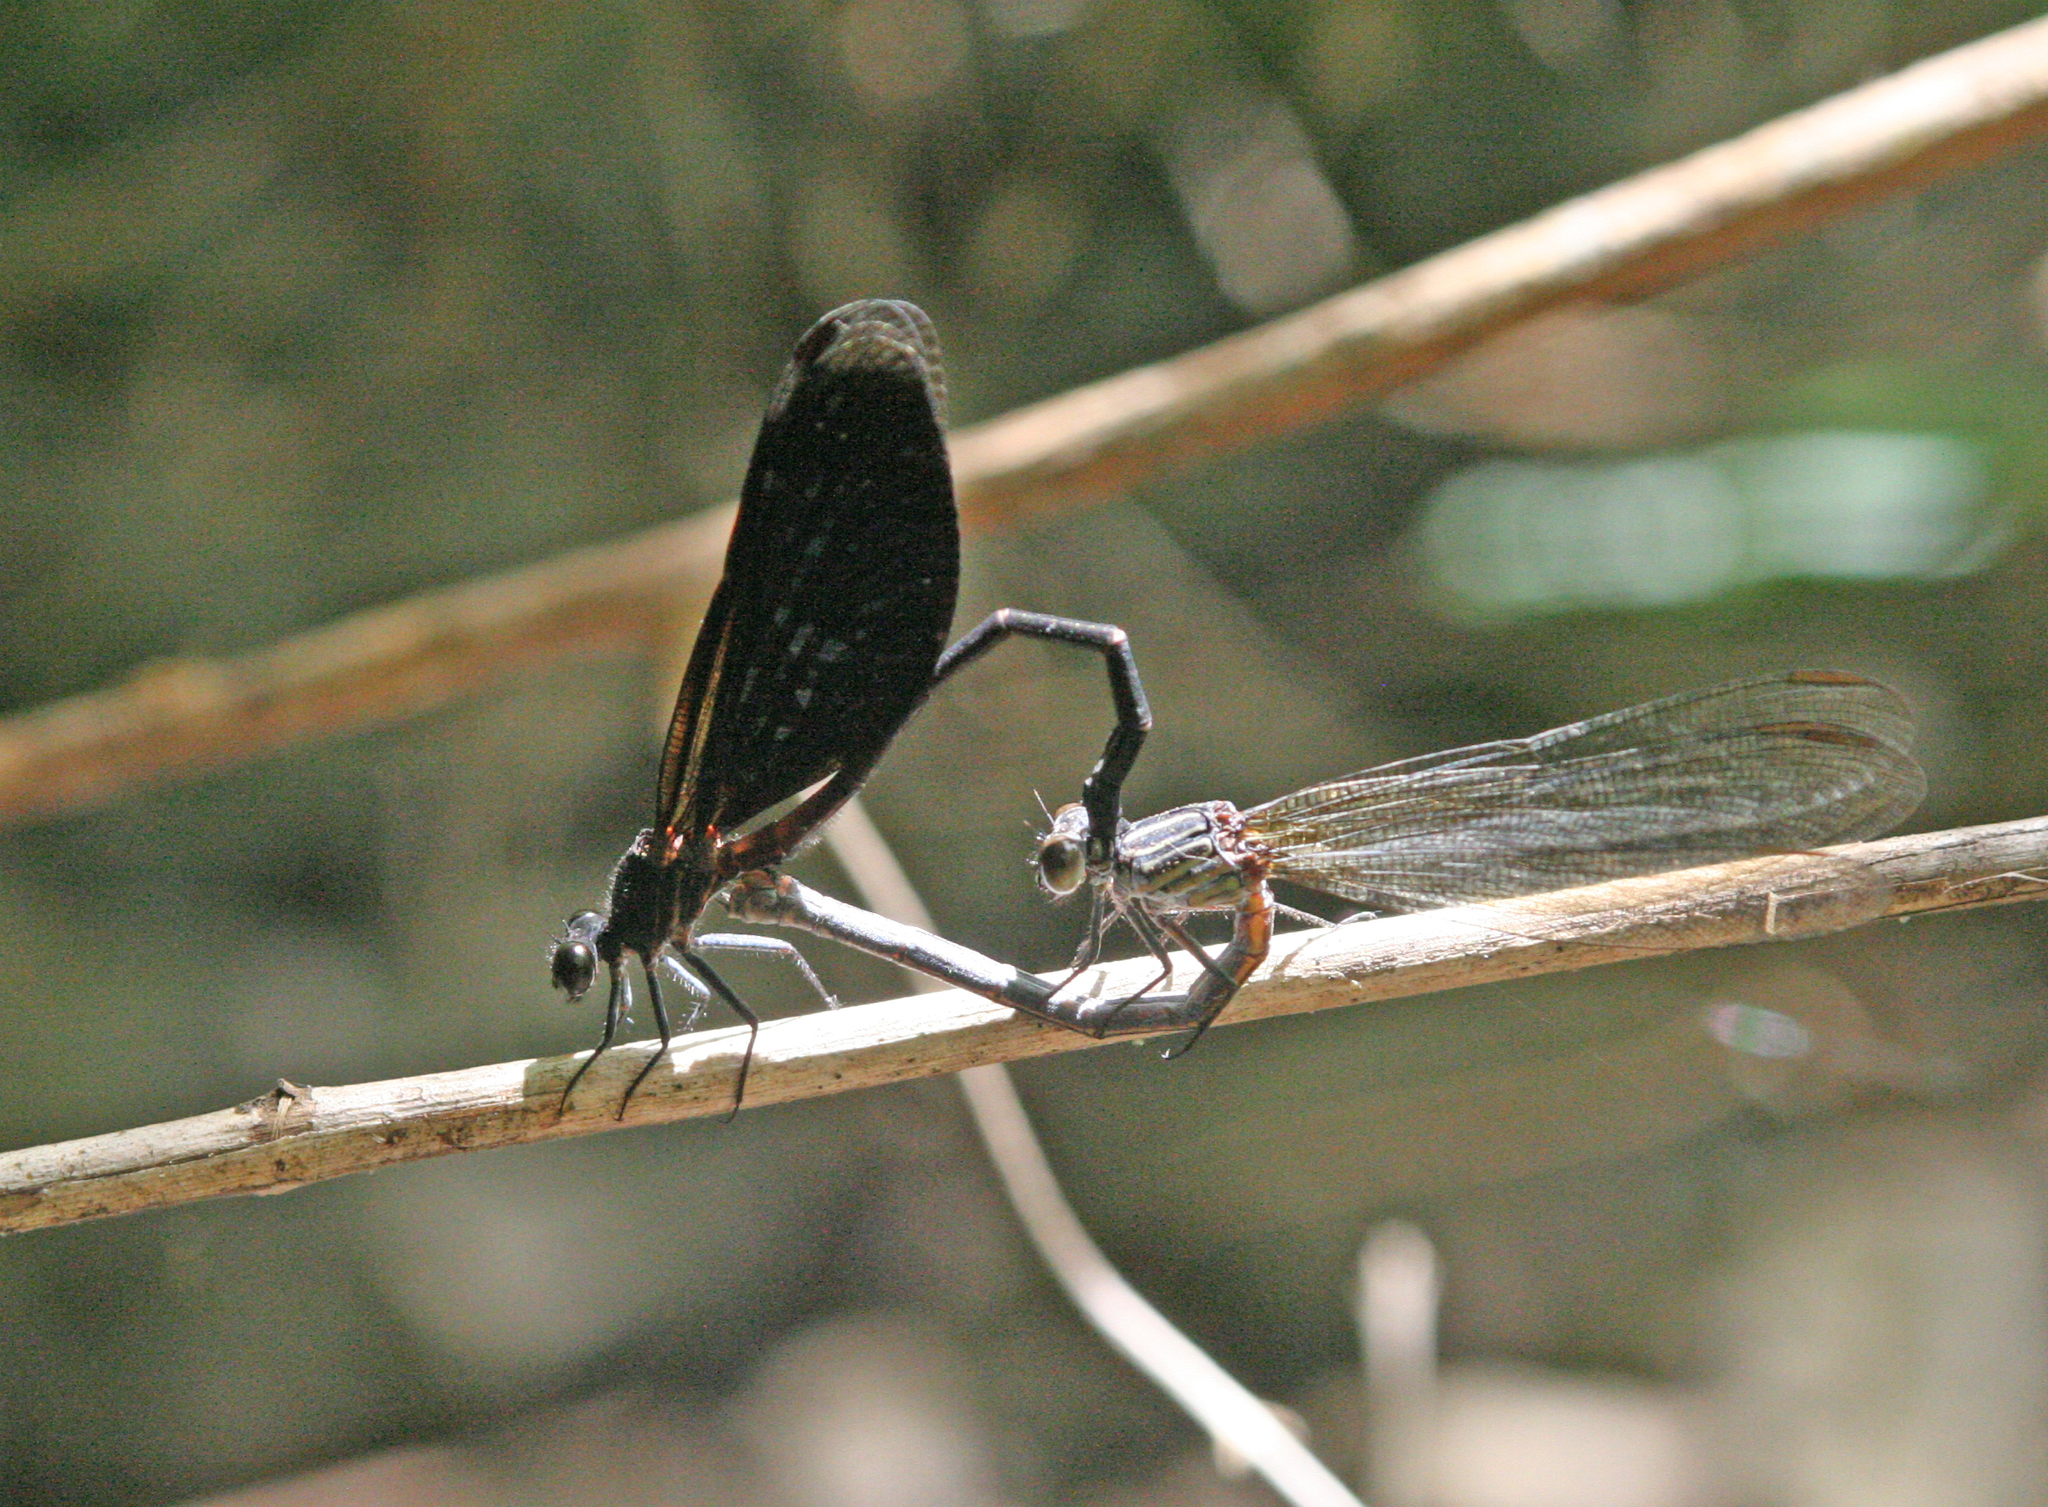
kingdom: Animalia
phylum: Arthropoda
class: Insecta
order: Odonata
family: Euphaeidae
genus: Euphaea
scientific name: Euphaea inouei
